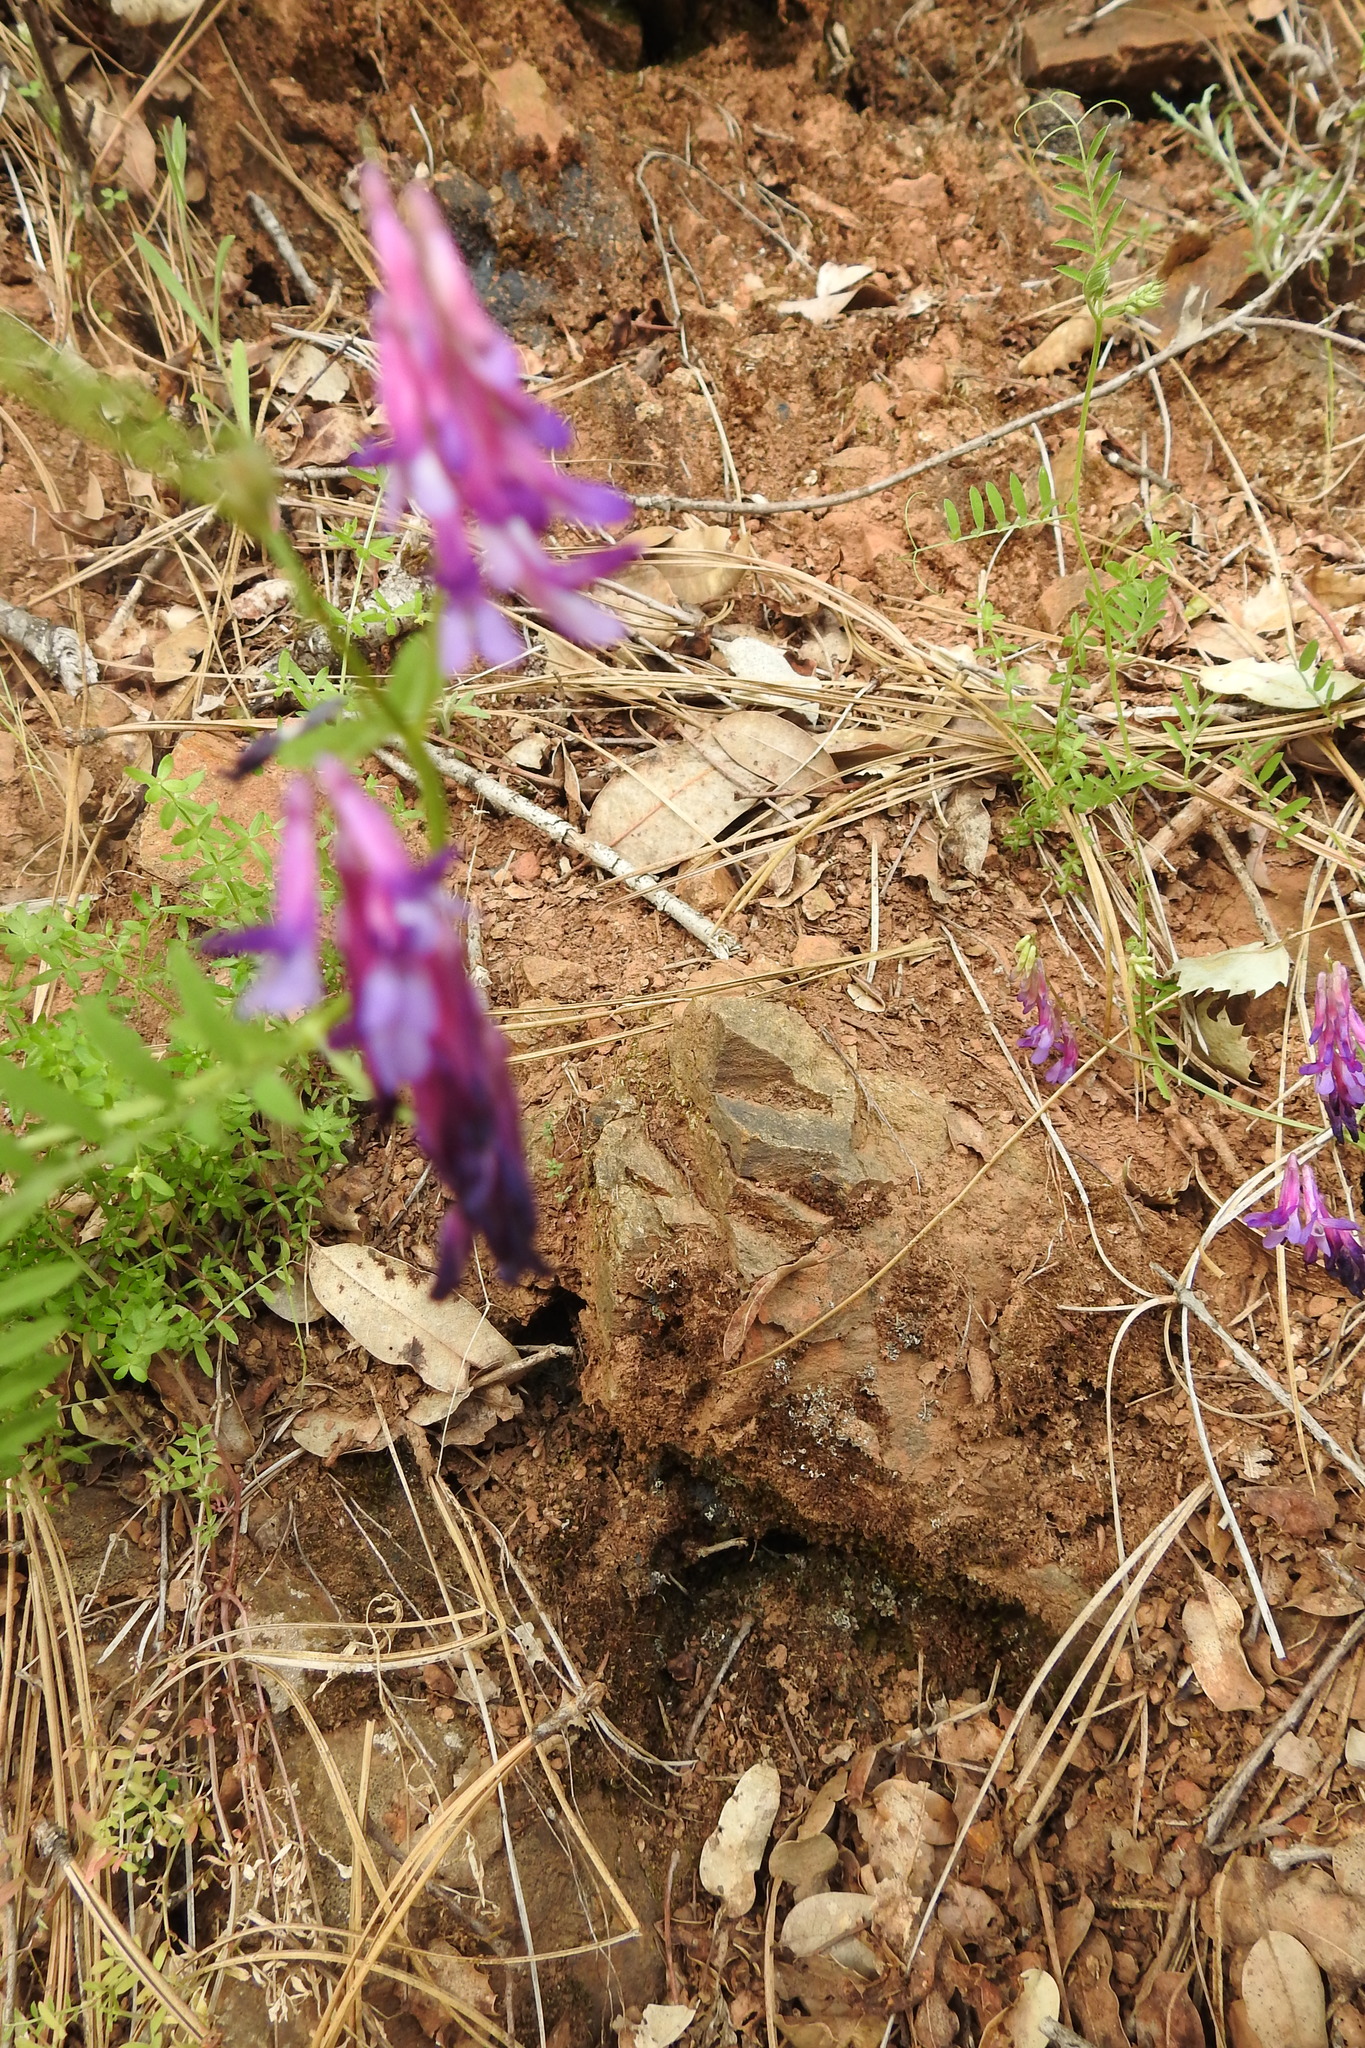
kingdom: Plantae
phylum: Tracheophyta
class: Magnoliopsida
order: Fabales
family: Fabaceae
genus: Vicia
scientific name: Vicia villosa
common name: Fodder vetch
